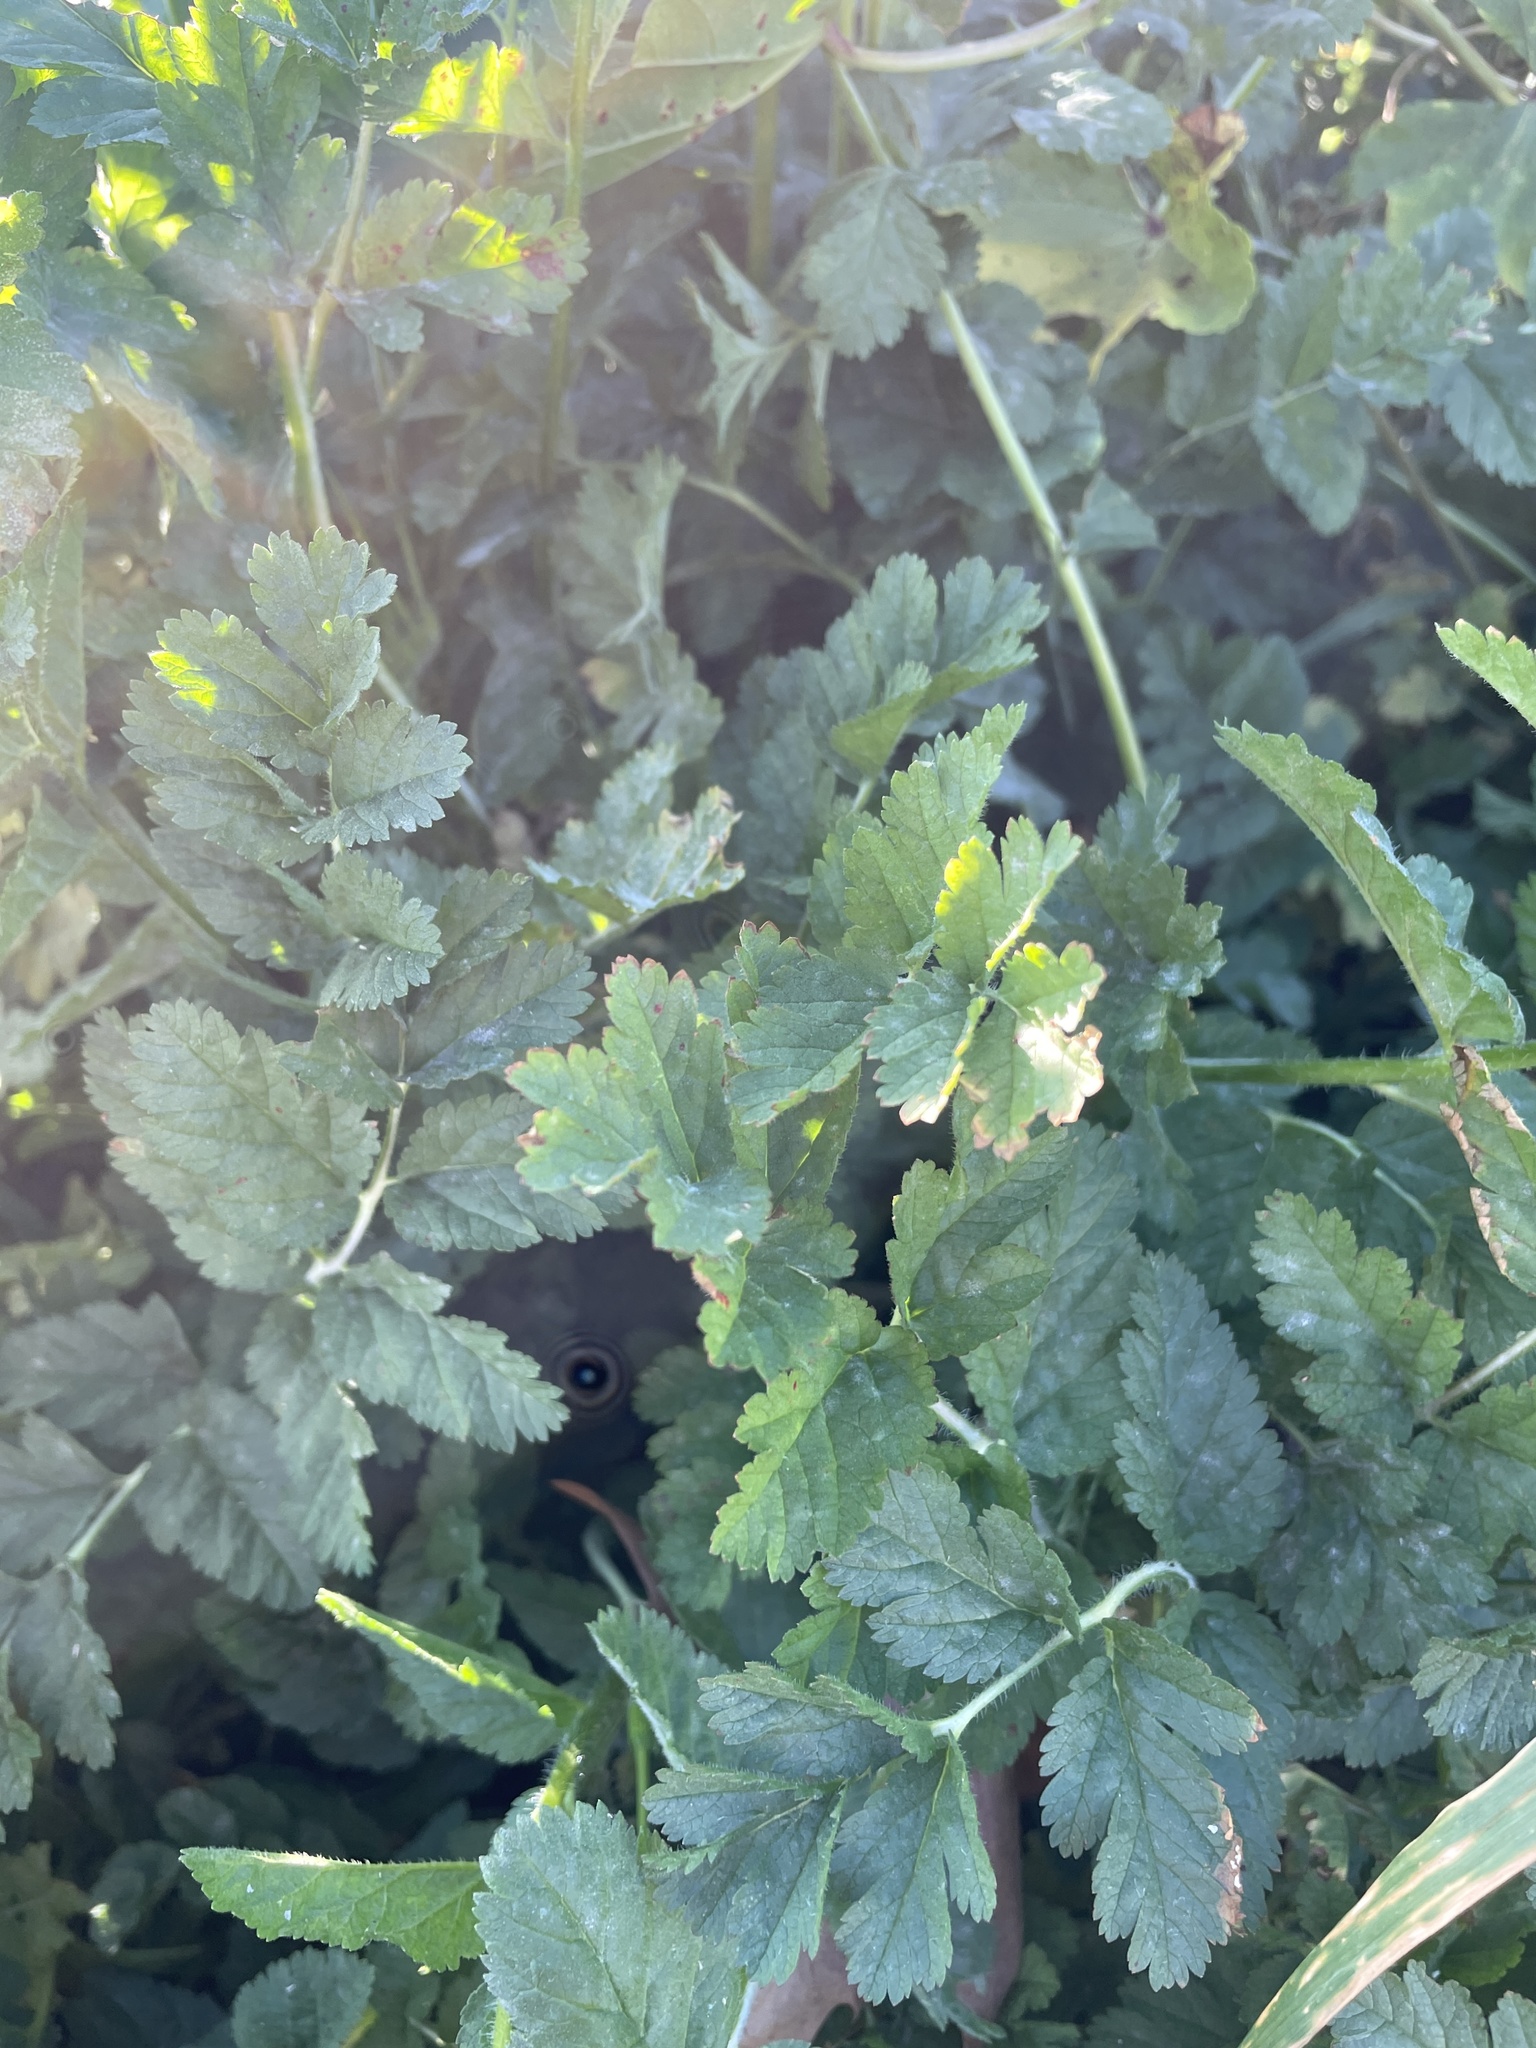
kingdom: Plantae
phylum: Tracheophyta
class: Magnoliopsida
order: Geraniales
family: Geraniaceae
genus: Erodium
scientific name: Erodium moschatum
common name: Musk stork's-bill
